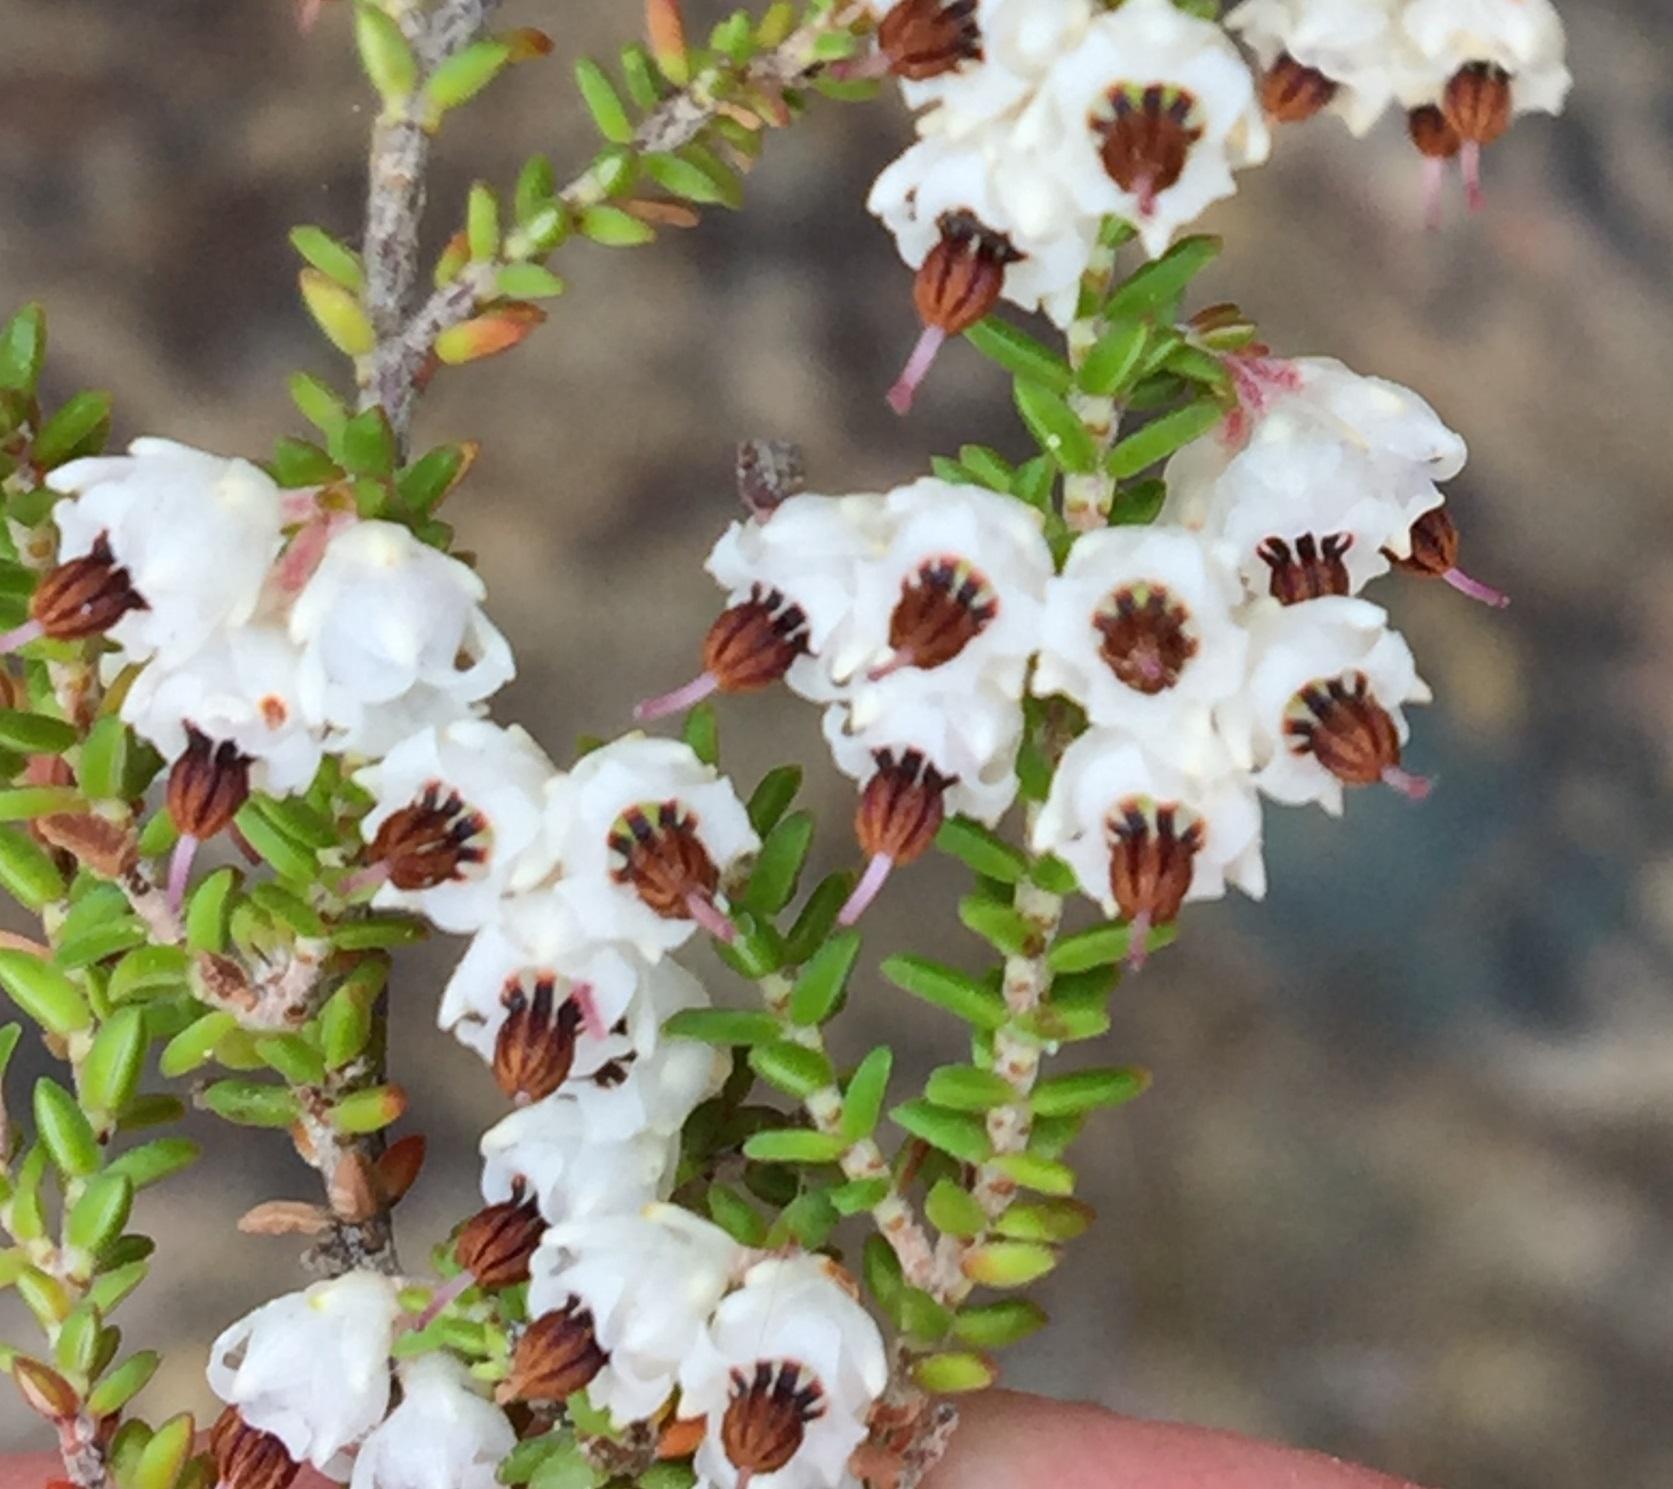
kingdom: Plantae
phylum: Tracheophyta
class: Magnoliopsida
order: Ericales
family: Ericaceae
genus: Erica
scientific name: Erica triceps
